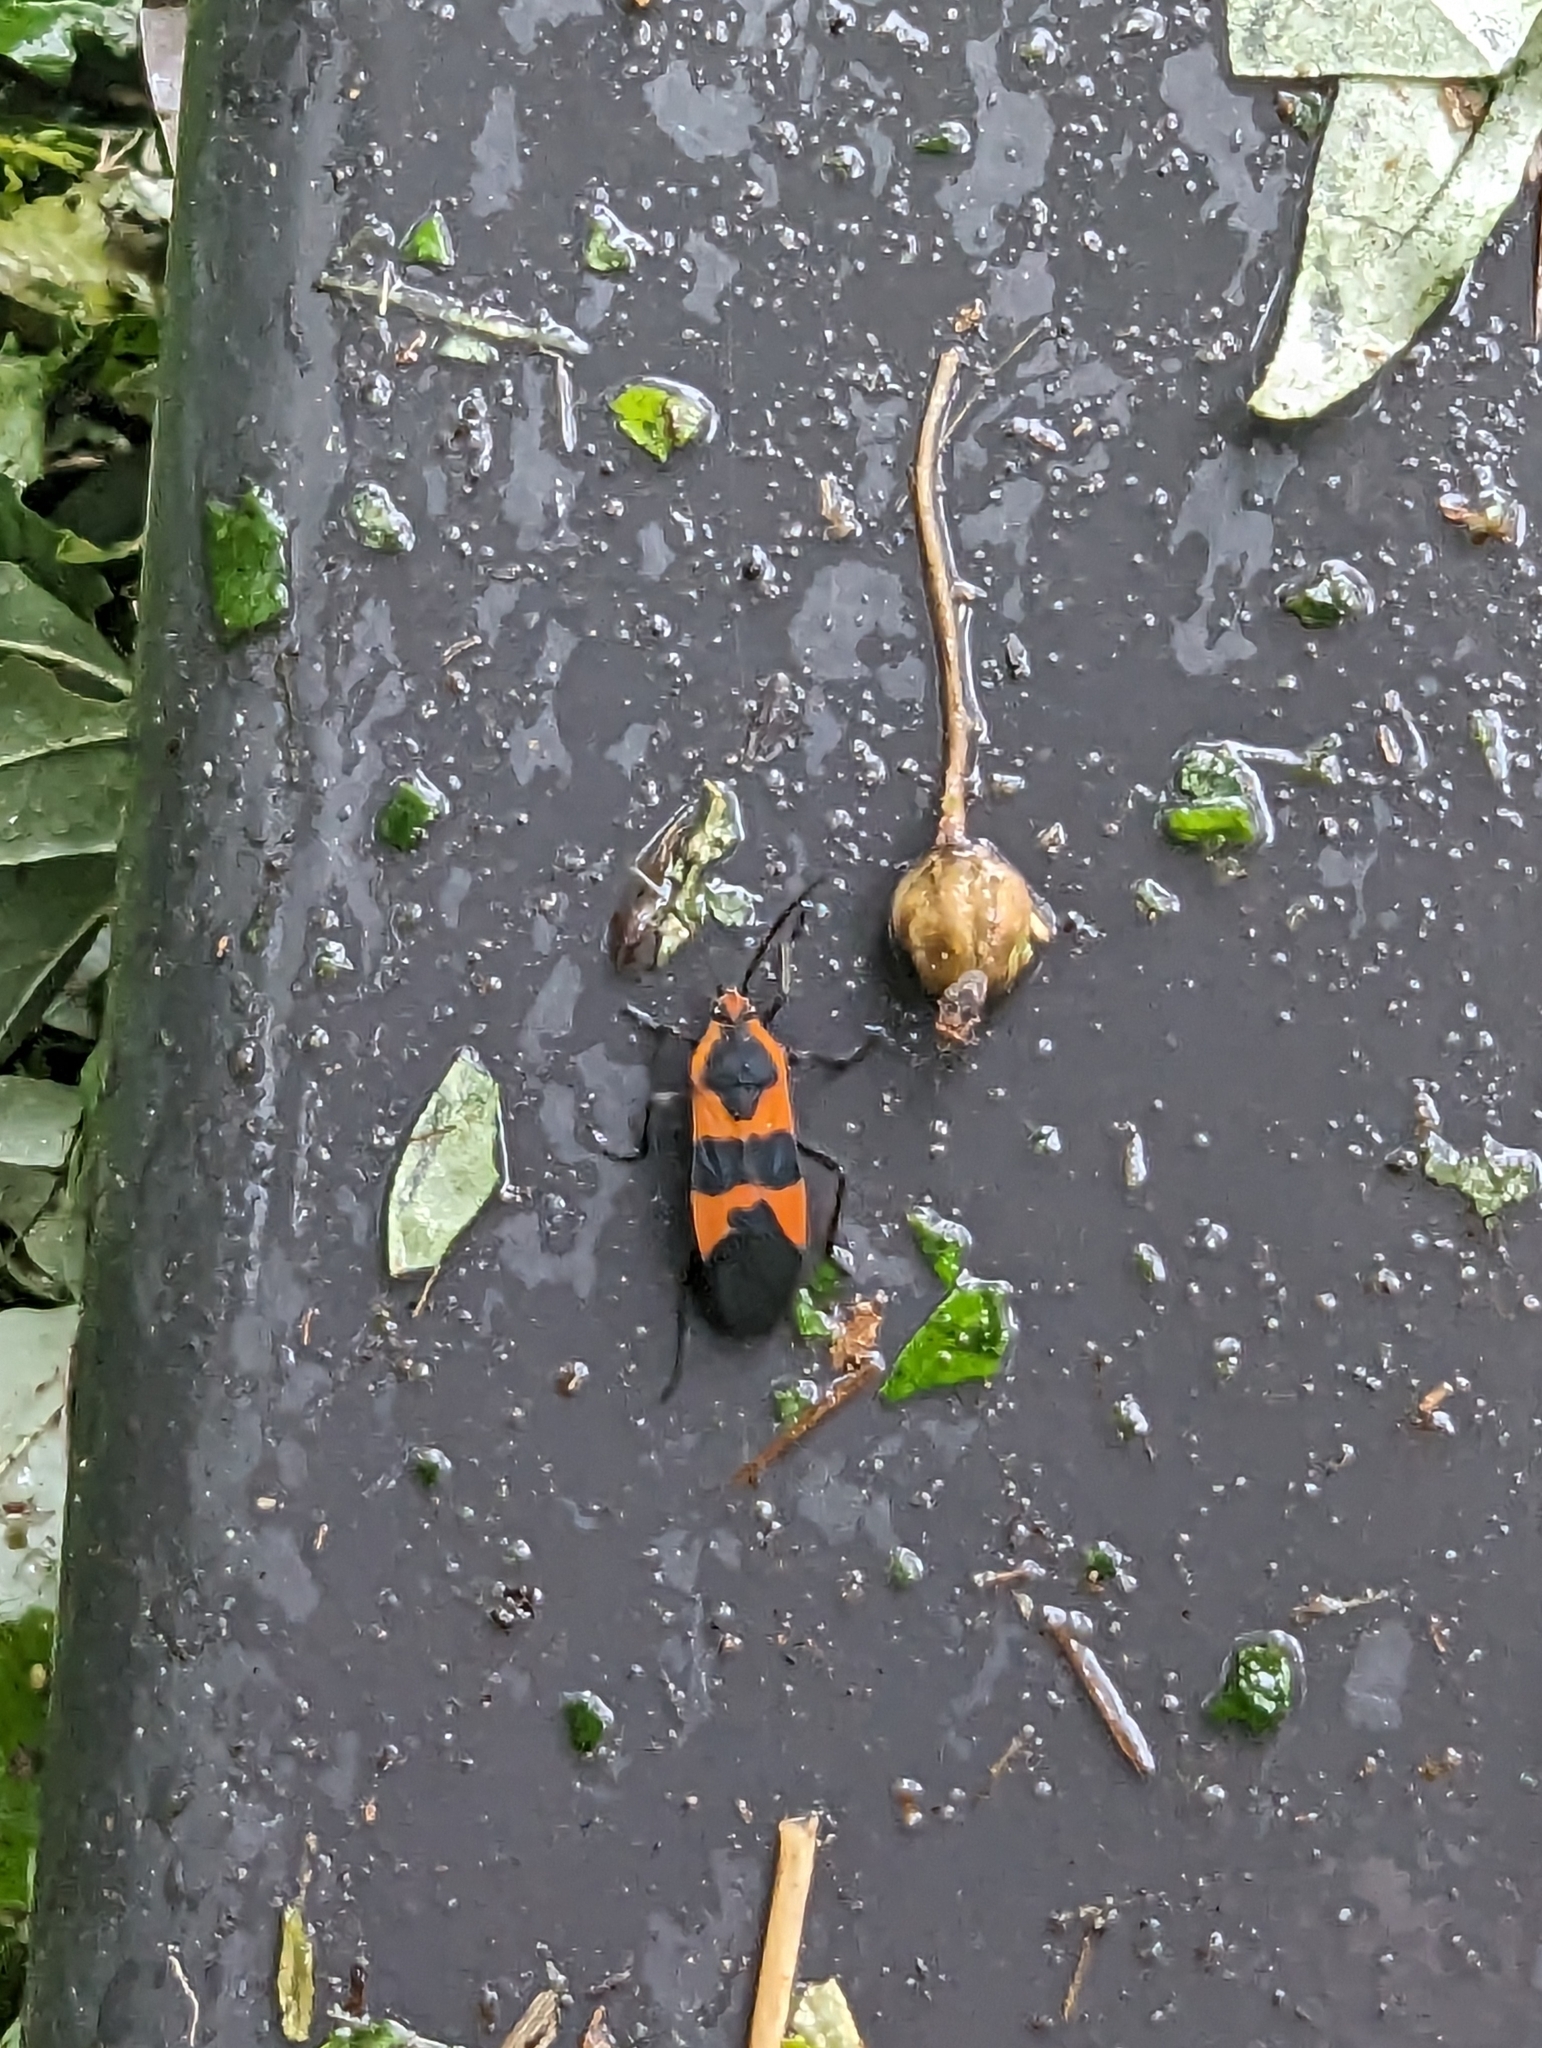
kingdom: Animalia
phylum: Arthropoda
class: Insecta
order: Hemiptera
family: Lygaeidae
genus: Oncopeltus
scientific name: Oncopeltus fasciatus
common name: Large milkweed bug
